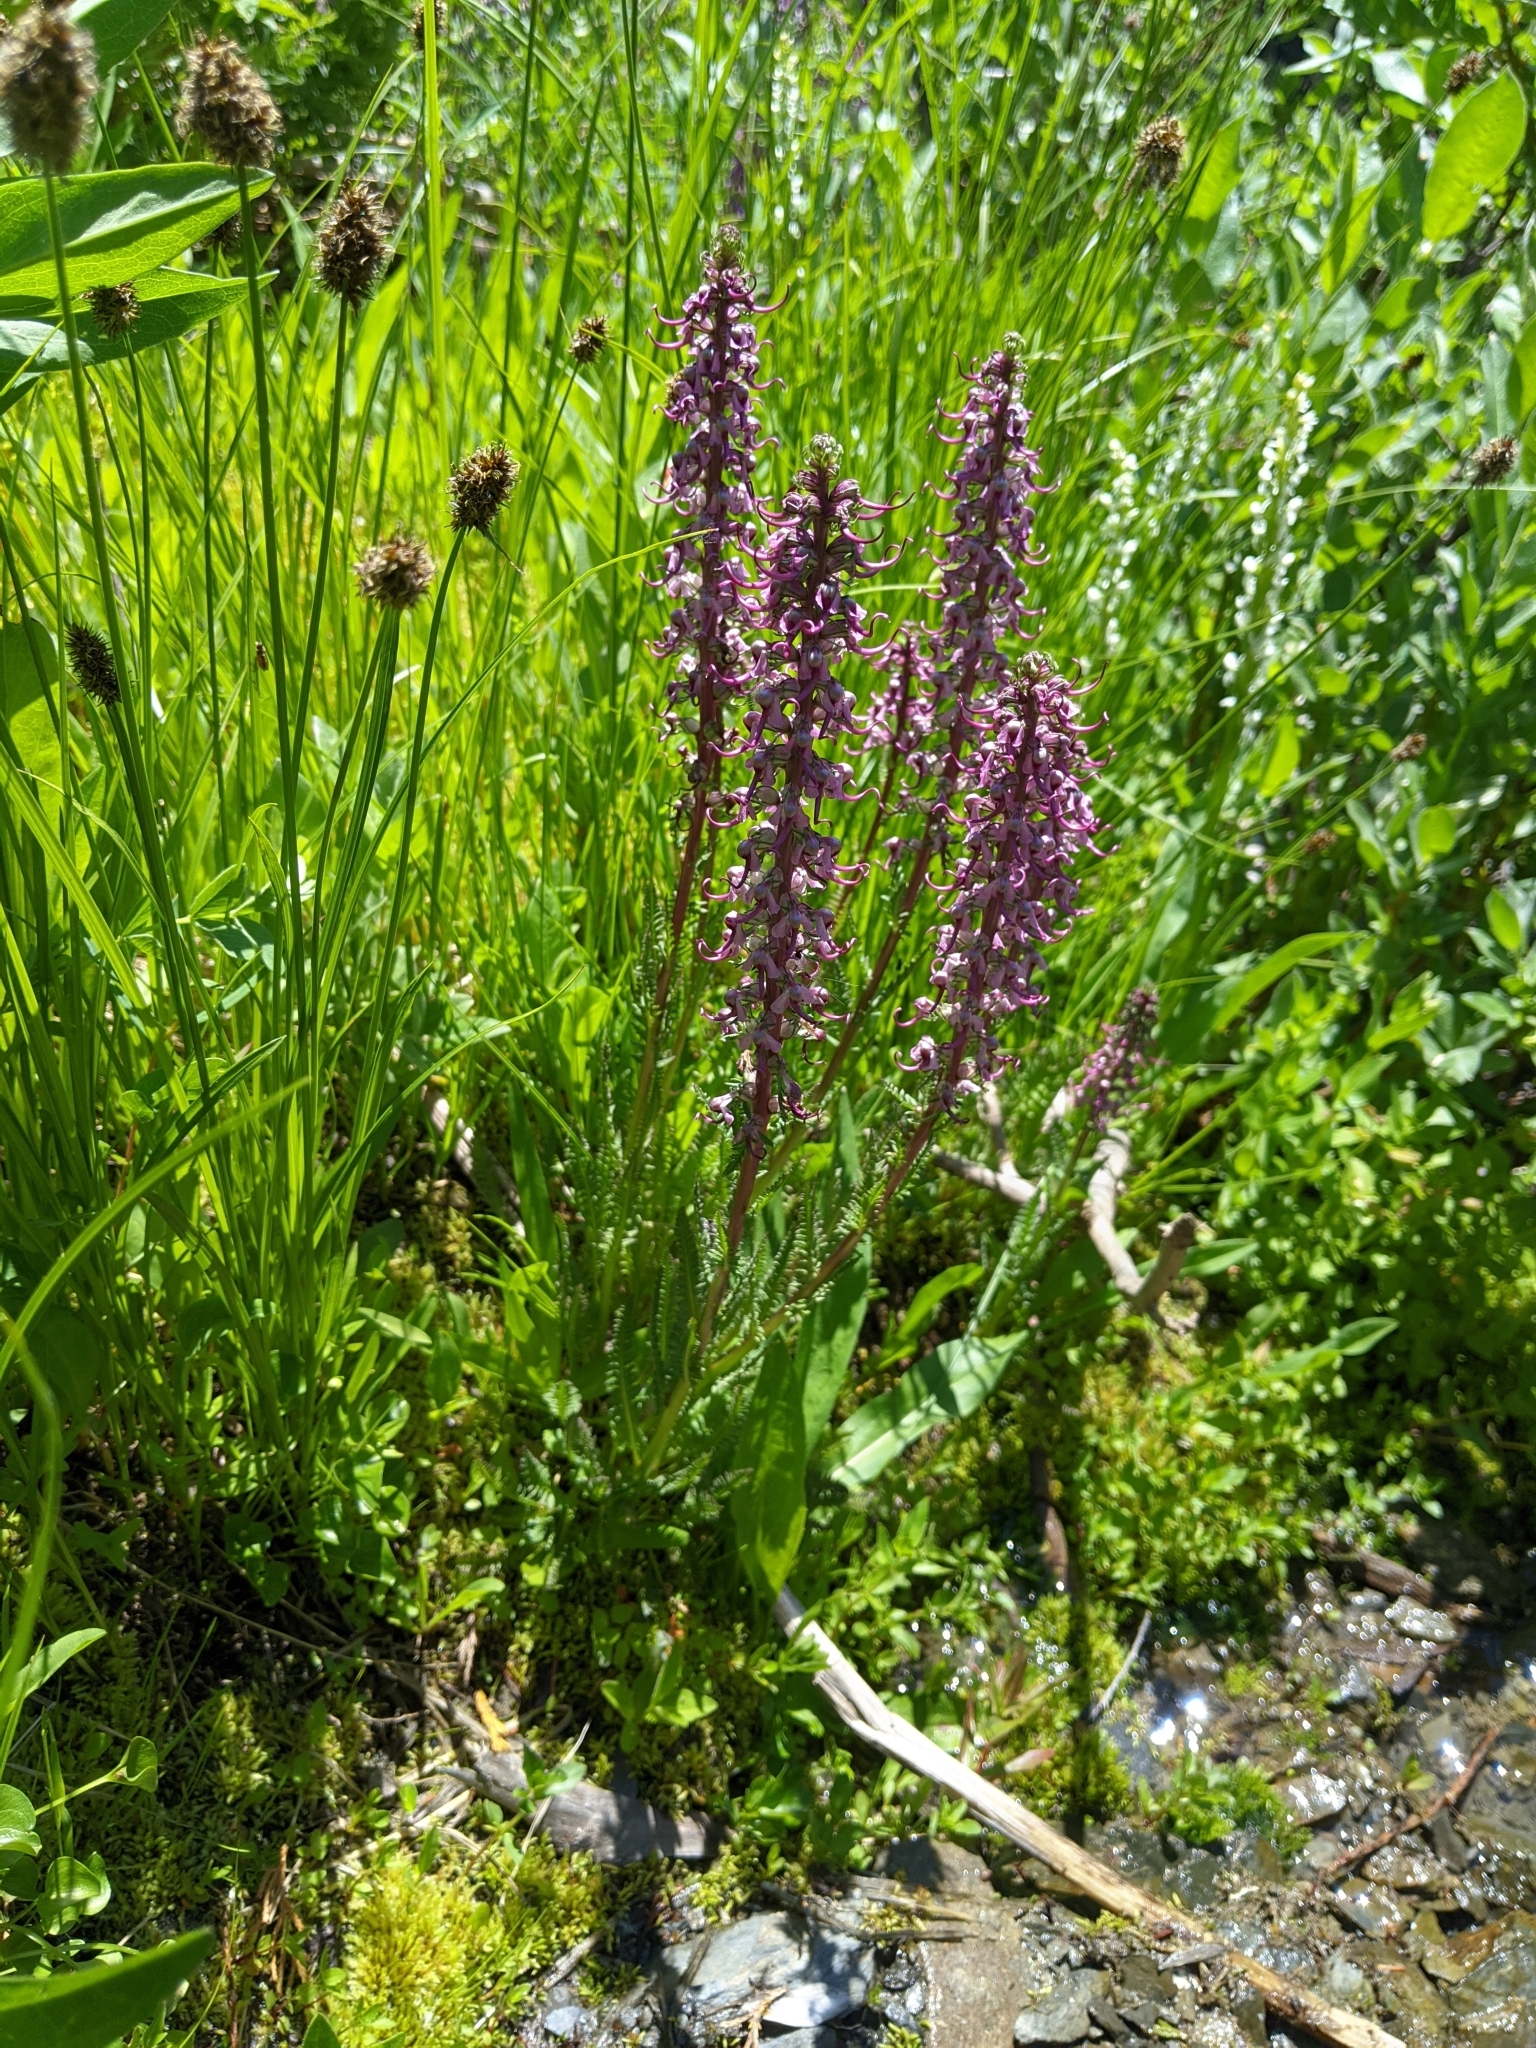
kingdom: Plantae
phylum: Tracheophyta
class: Magnoliopsida
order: Lamiales
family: Orobanchaceae
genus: Pedicularis
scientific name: Pedicularis groenlandica
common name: Elephant's-head
